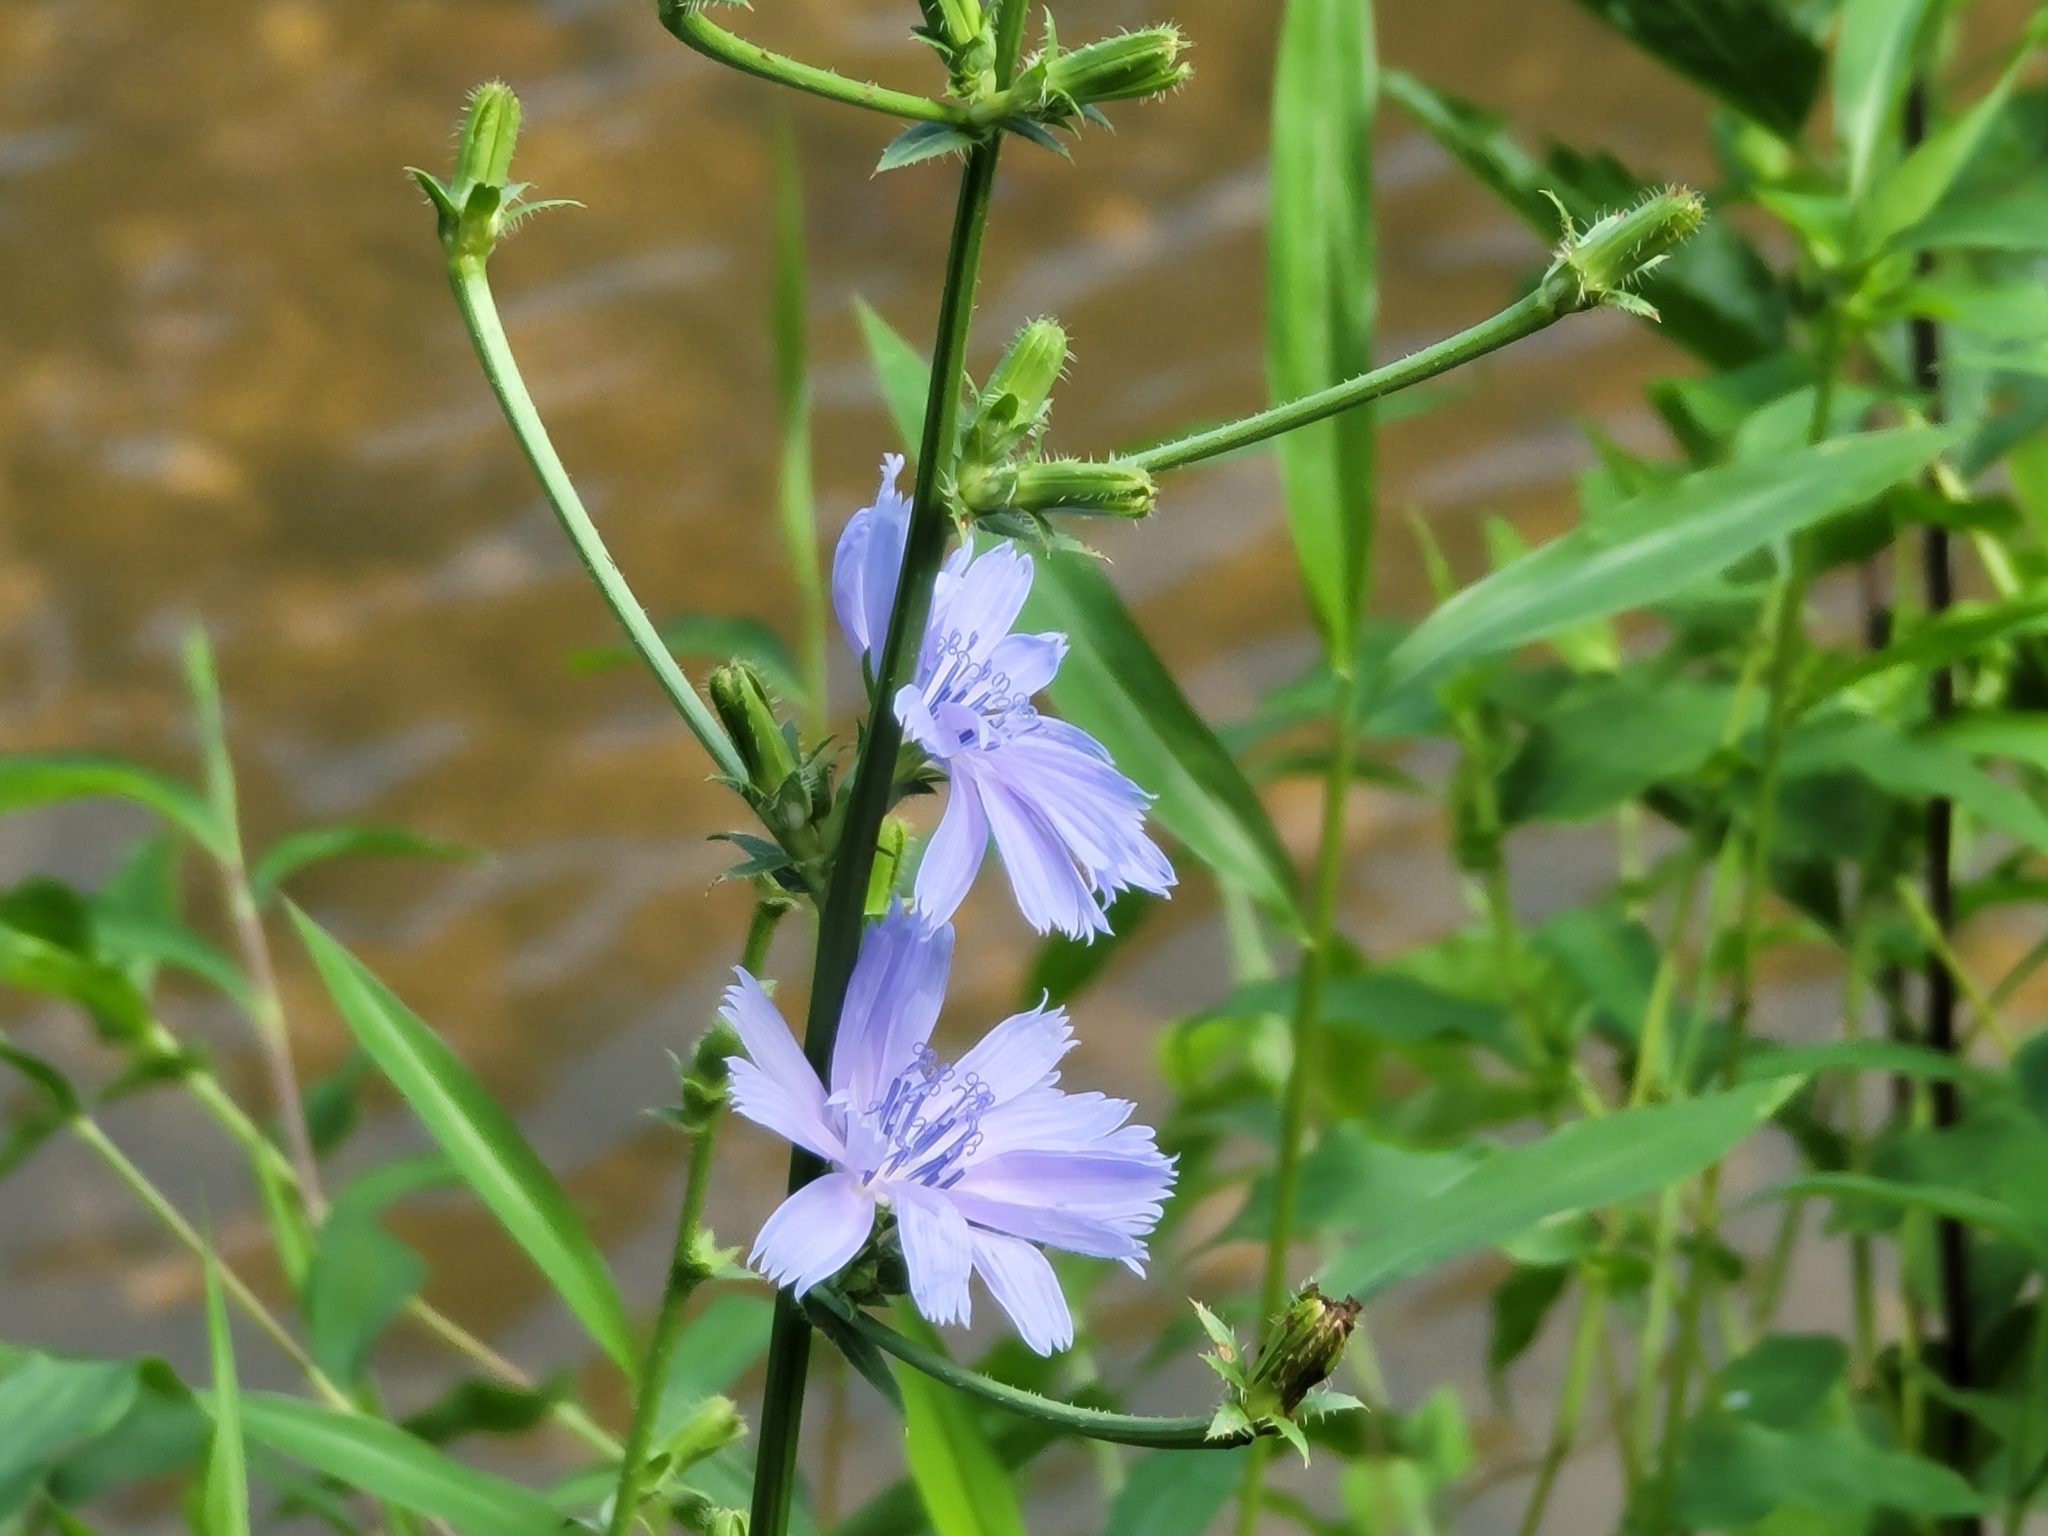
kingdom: Plantae
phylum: Tracheophyta
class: Magnoliopsida
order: Asterales
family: Asteraceae
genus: Cichorium
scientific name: Cichorium intybus
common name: Chicory
